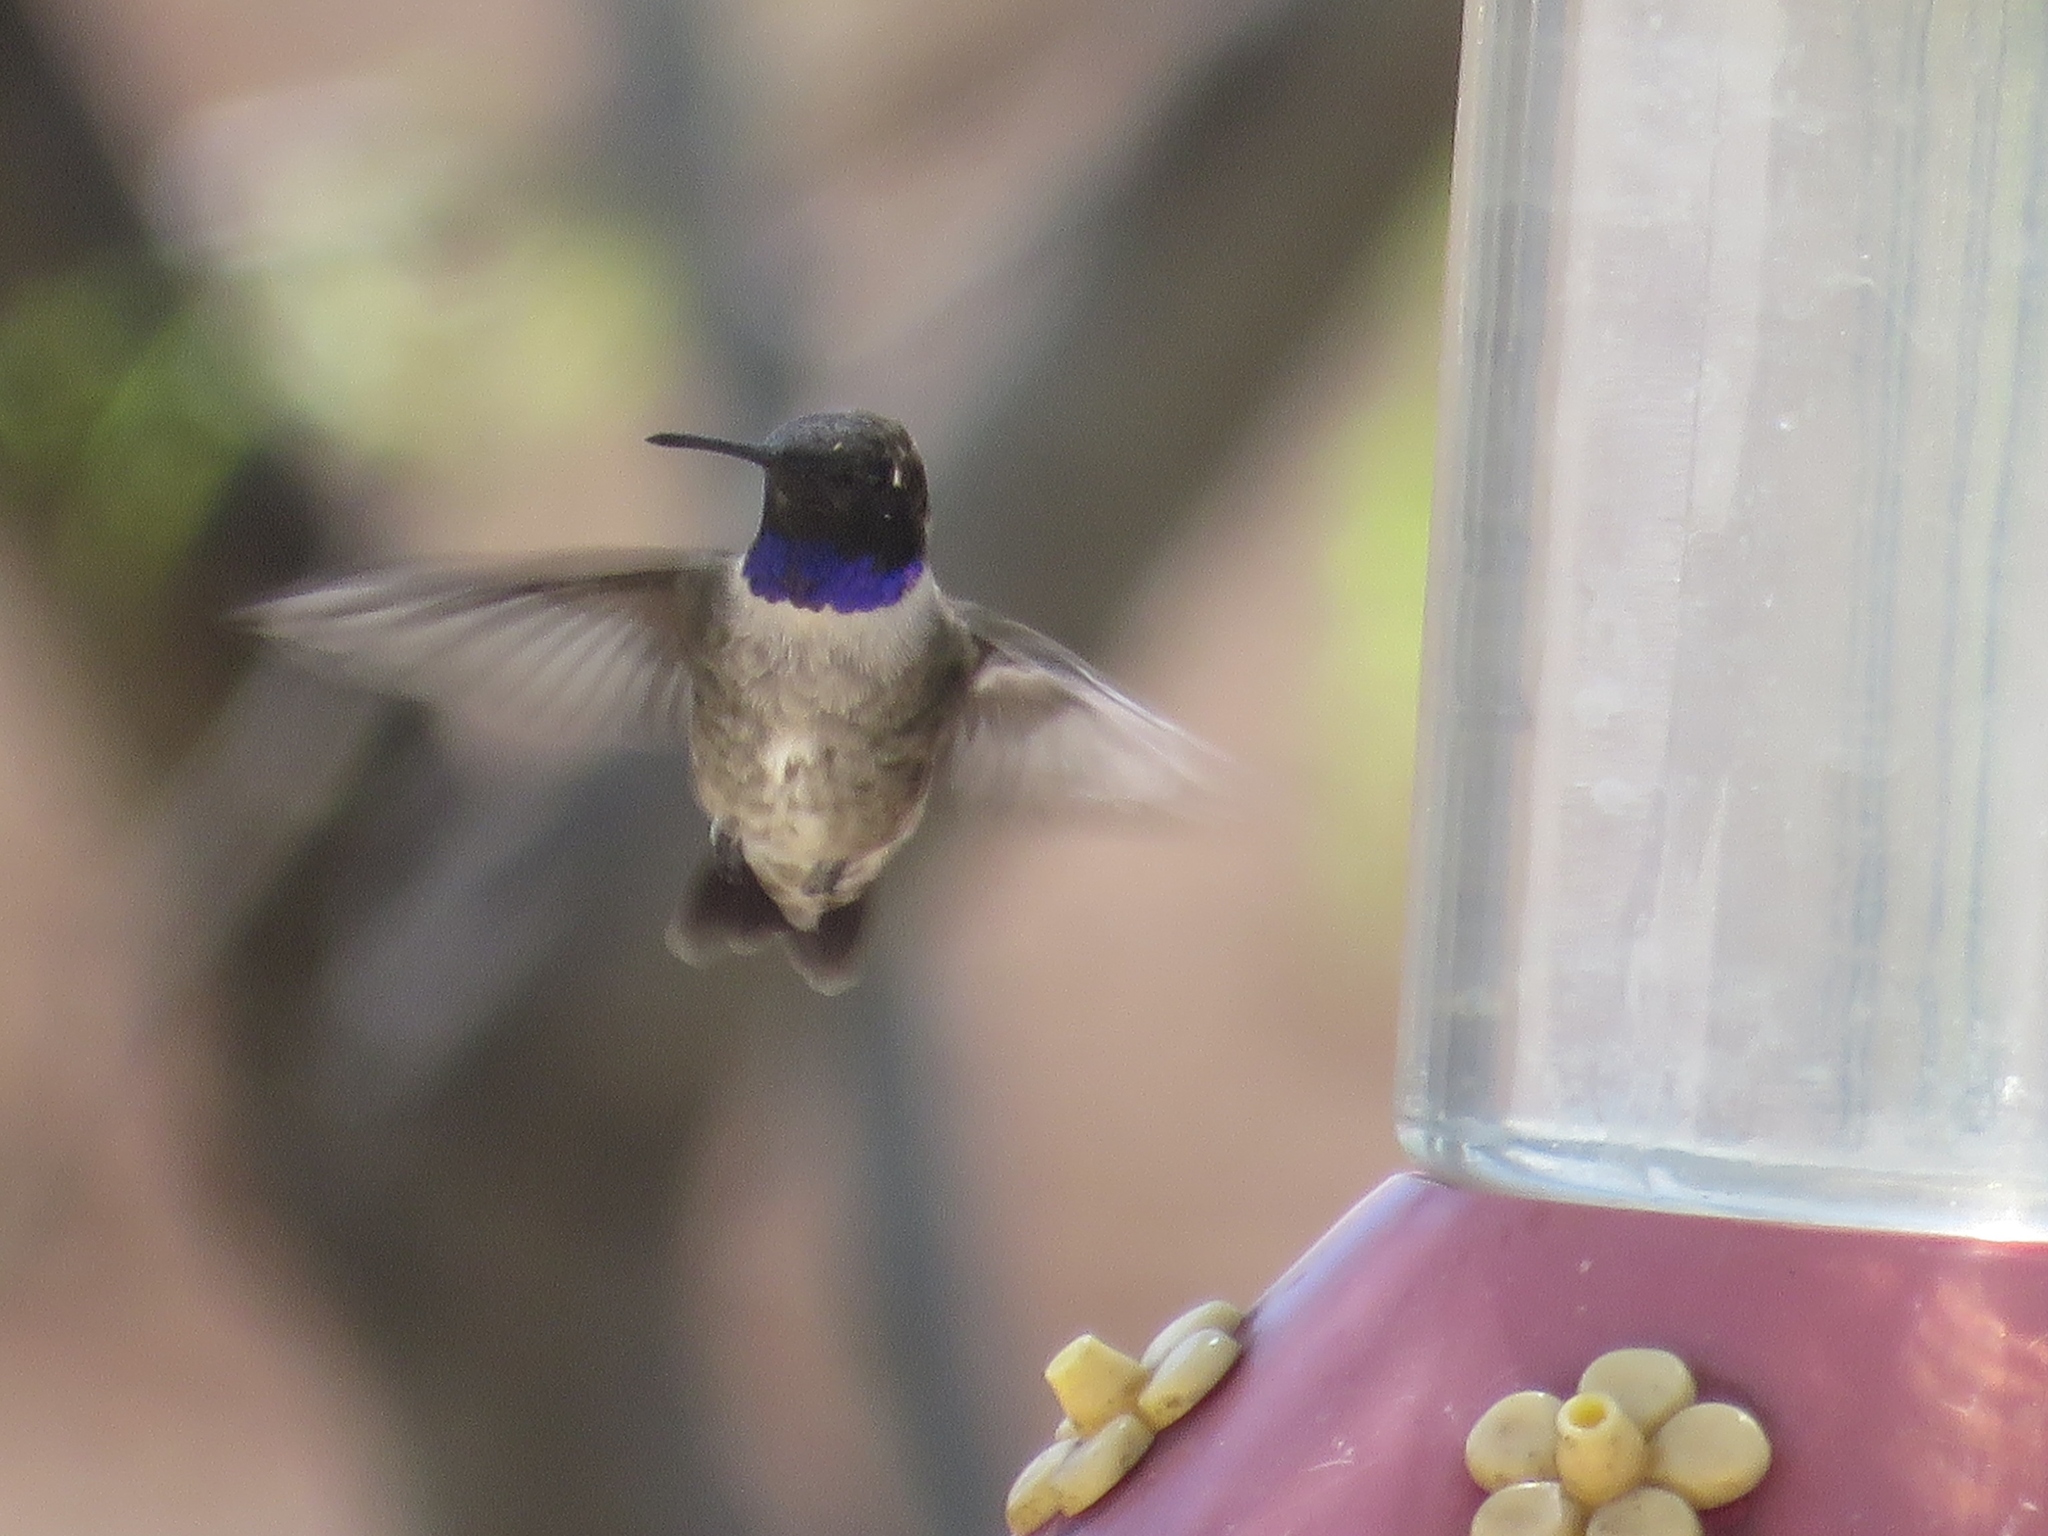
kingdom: Animalia
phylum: Chordata
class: Aves
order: Apodiformes
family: Trochilidae
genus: Archilochus
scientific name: Archilochus alexandri
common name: Black-chinned hummingbird
